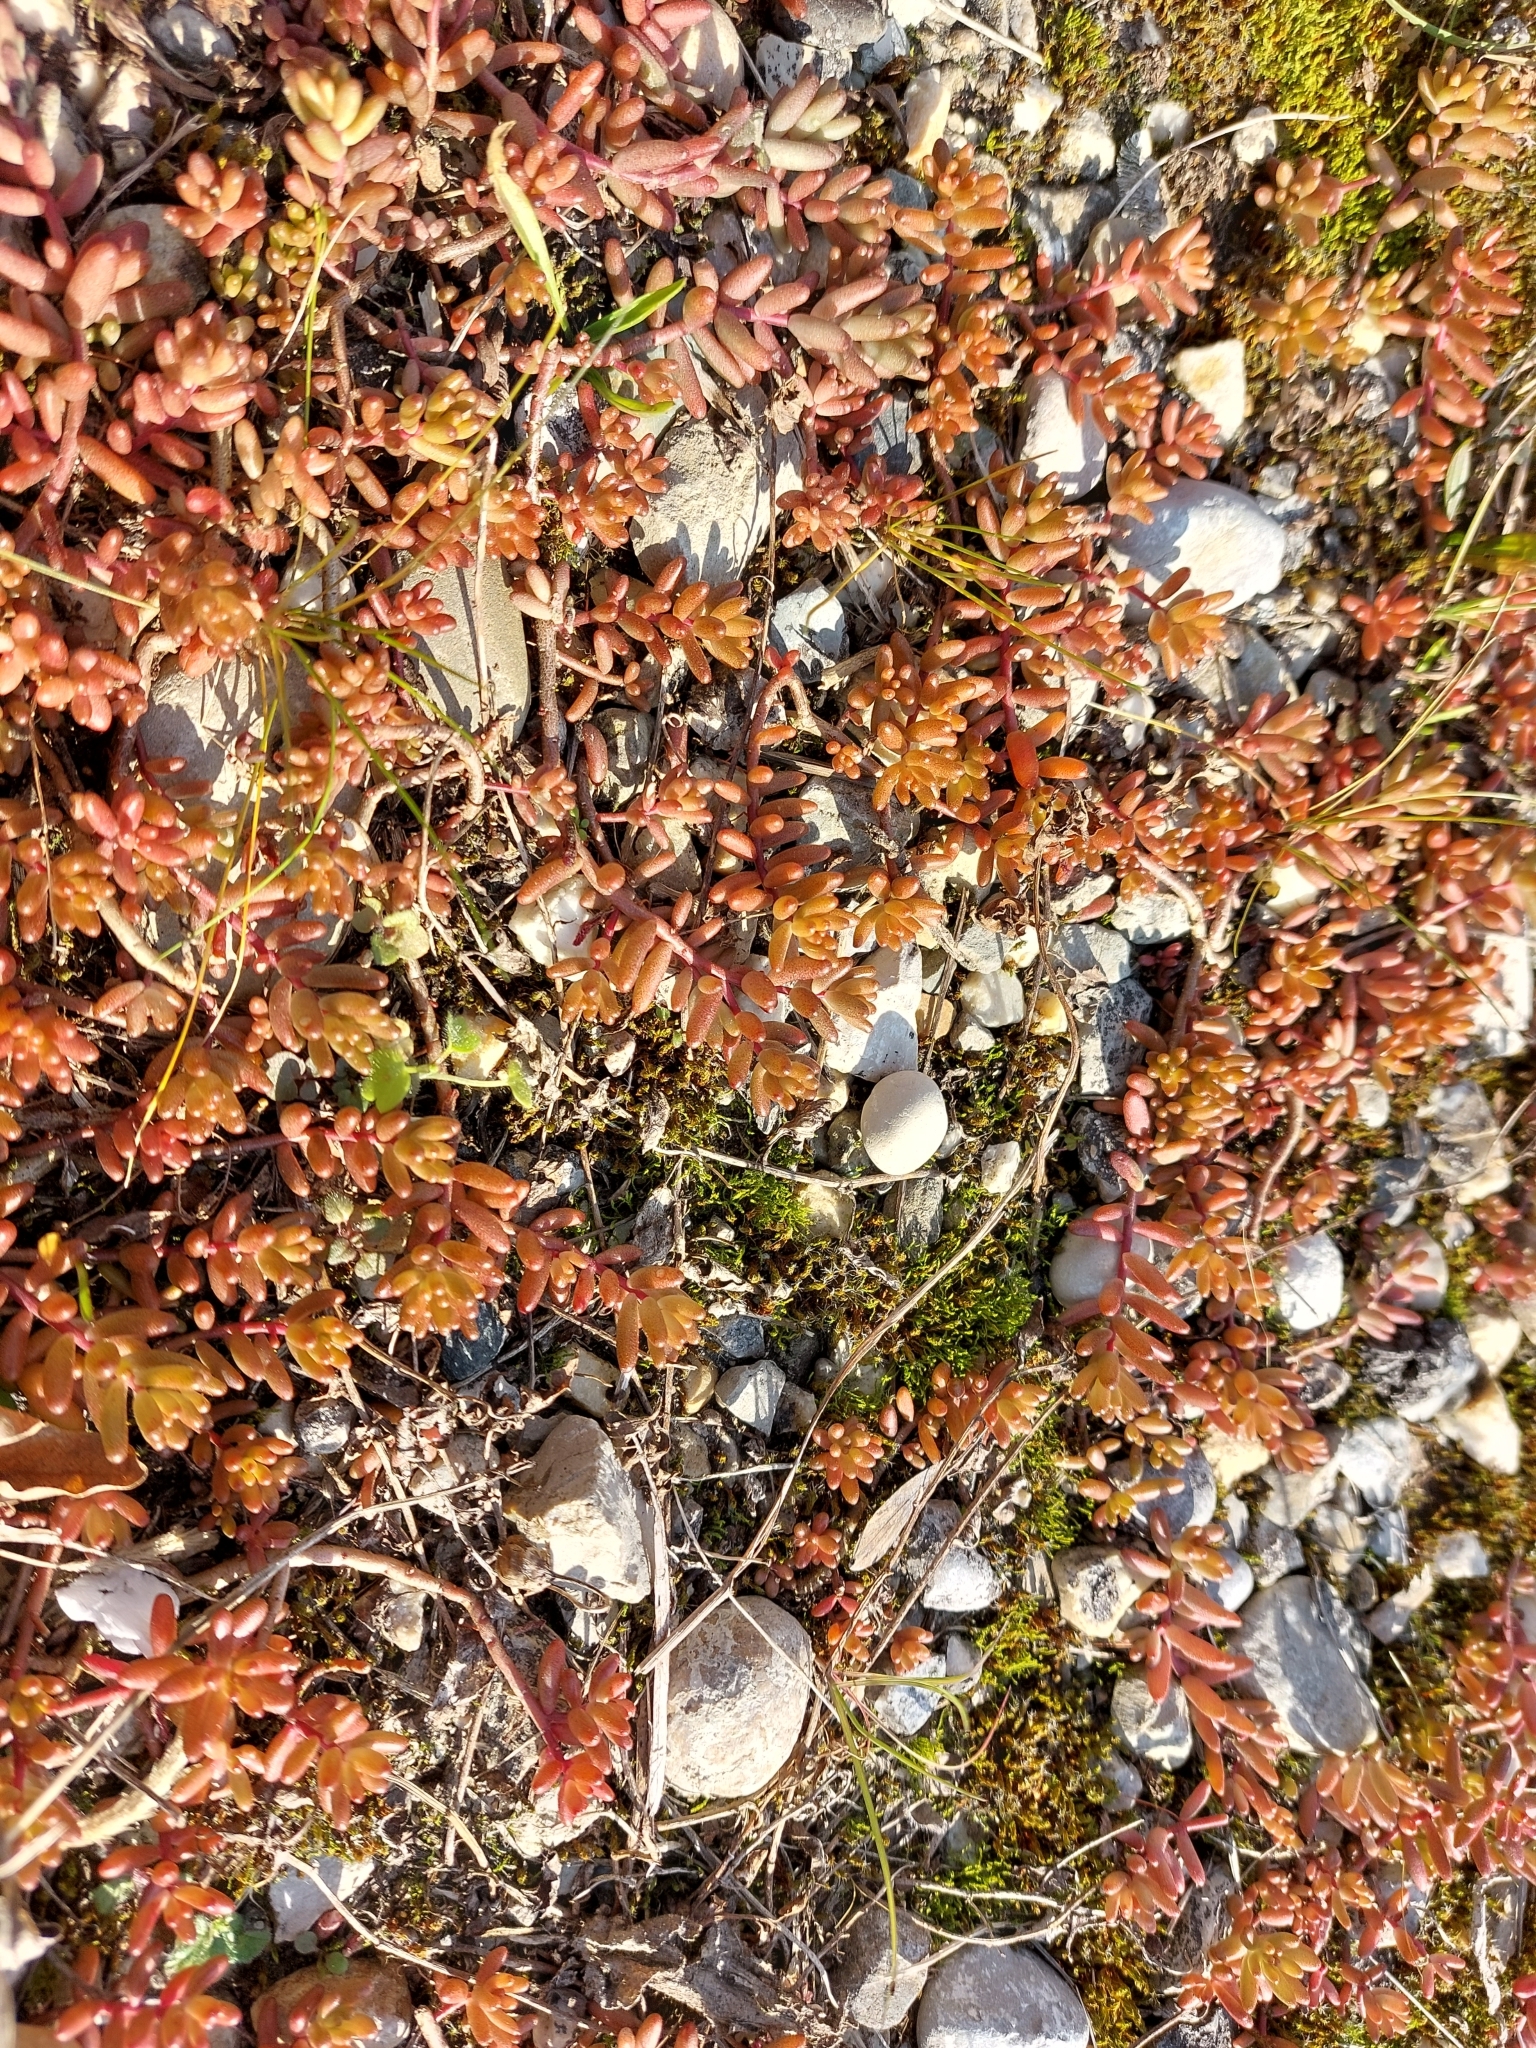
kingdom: Plantae
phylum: Tracheophyta
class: Magnoliopsida
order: Saxifragales
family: Crassulaceae
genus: Sedum
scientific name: Sedum album
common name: White stonecrop
